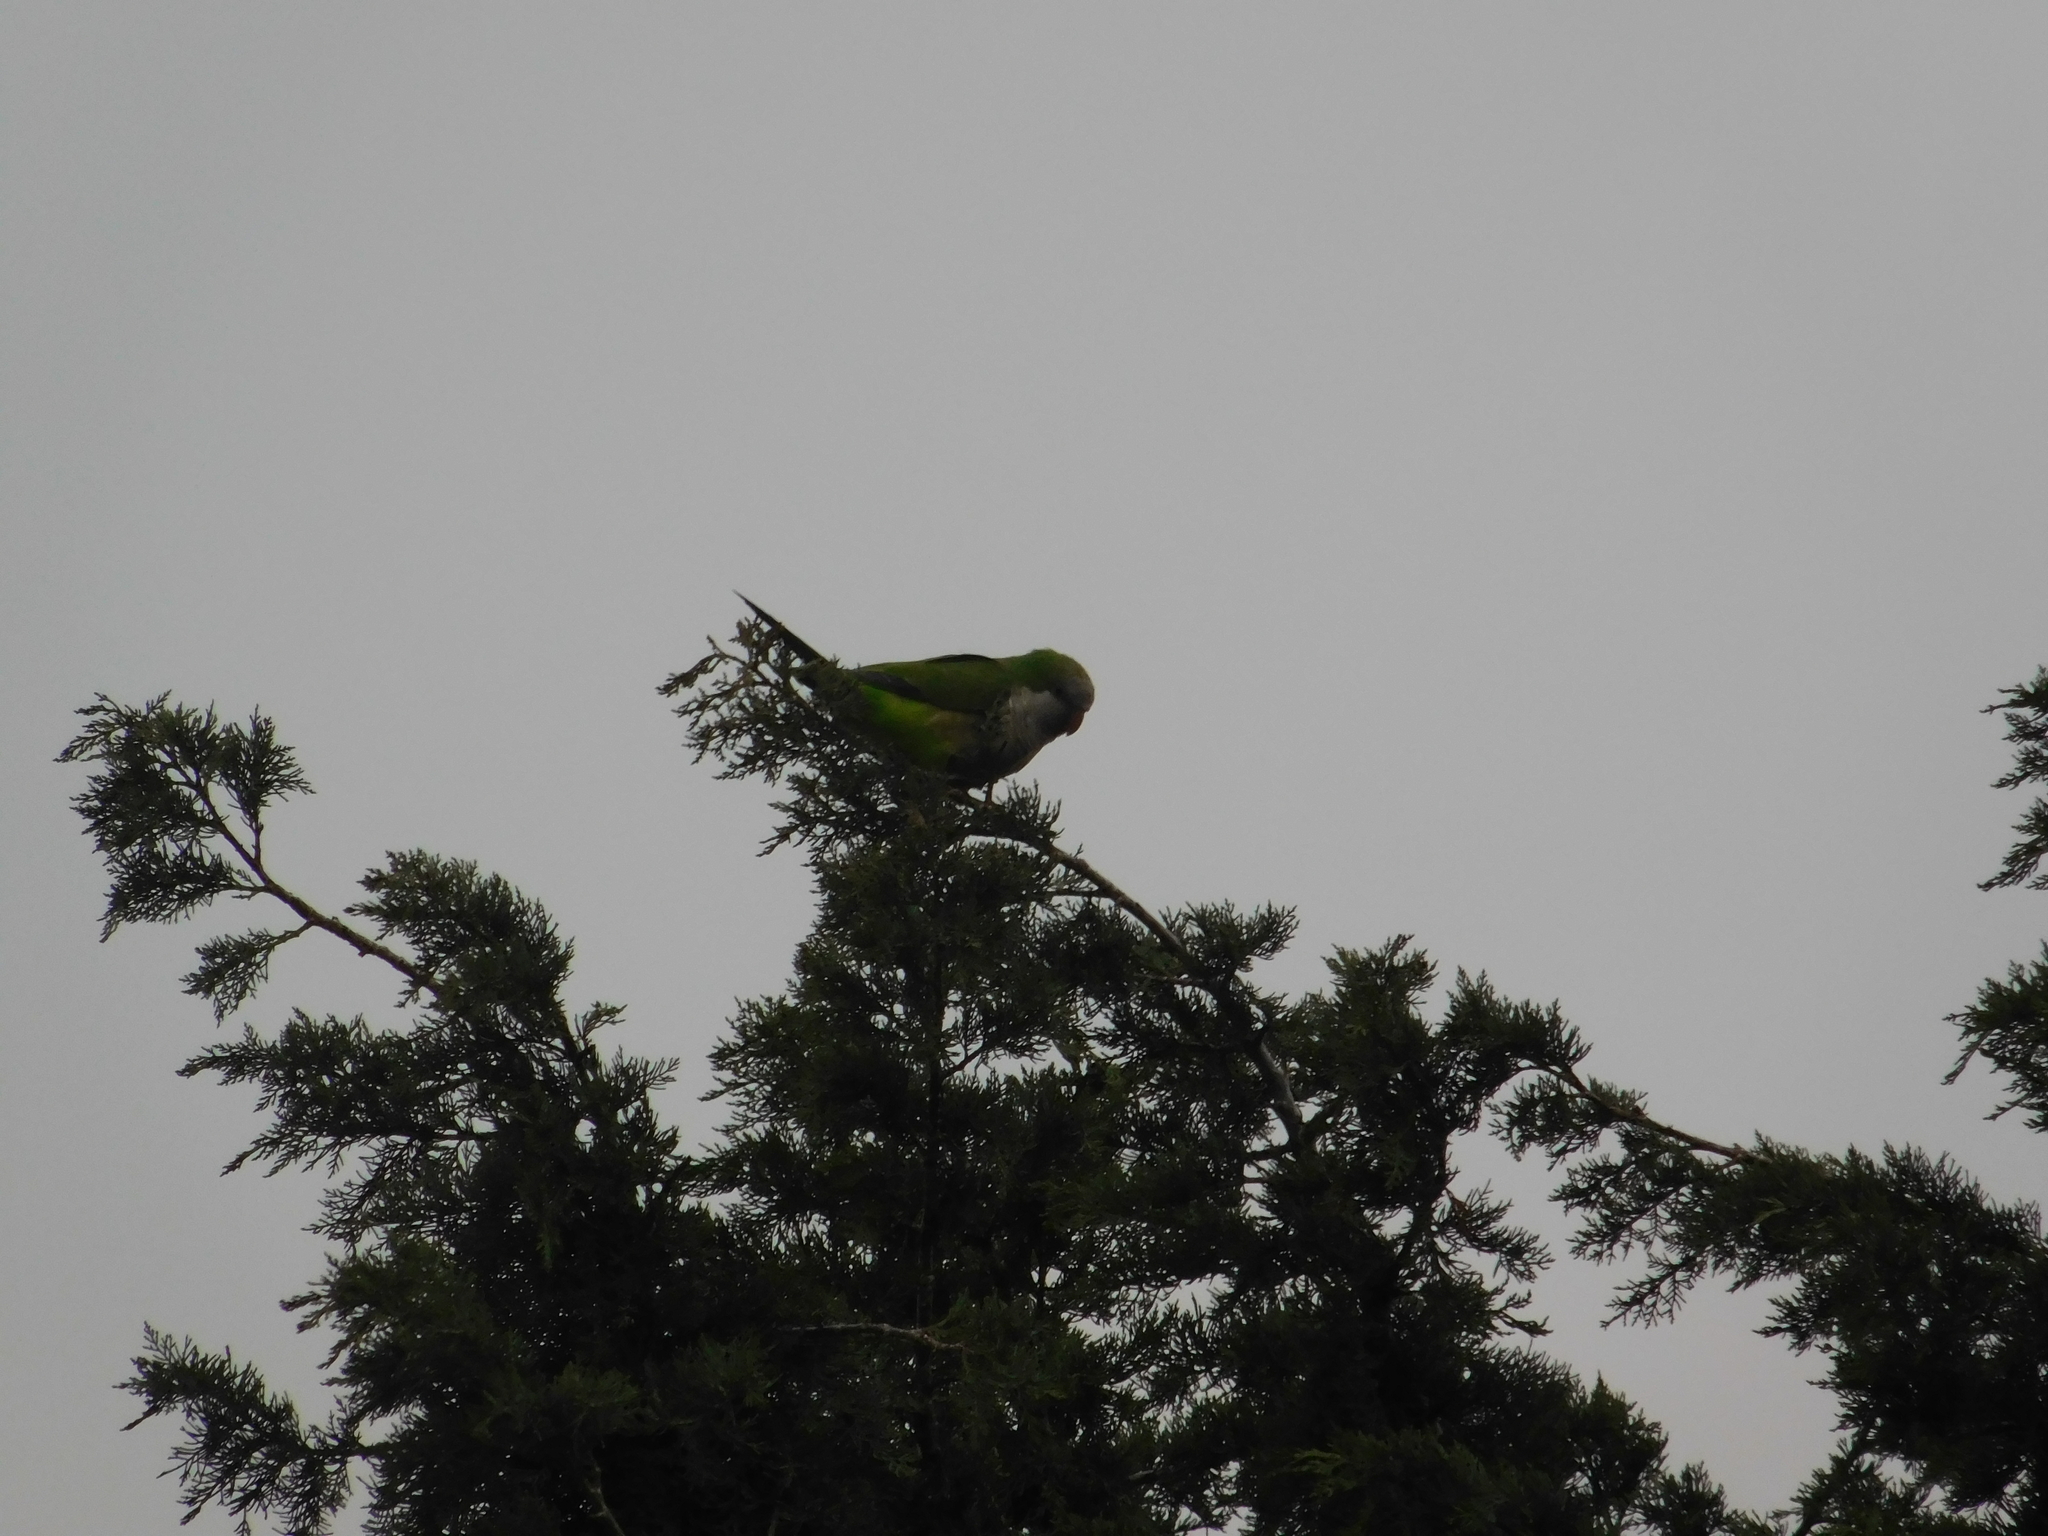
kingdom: Animalia
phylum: Chordata
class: Aves
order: Psittaciformes
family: Psittacidae
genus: Myiopsitta
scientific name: Myiopsitta monachus
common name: Monk parakeet
